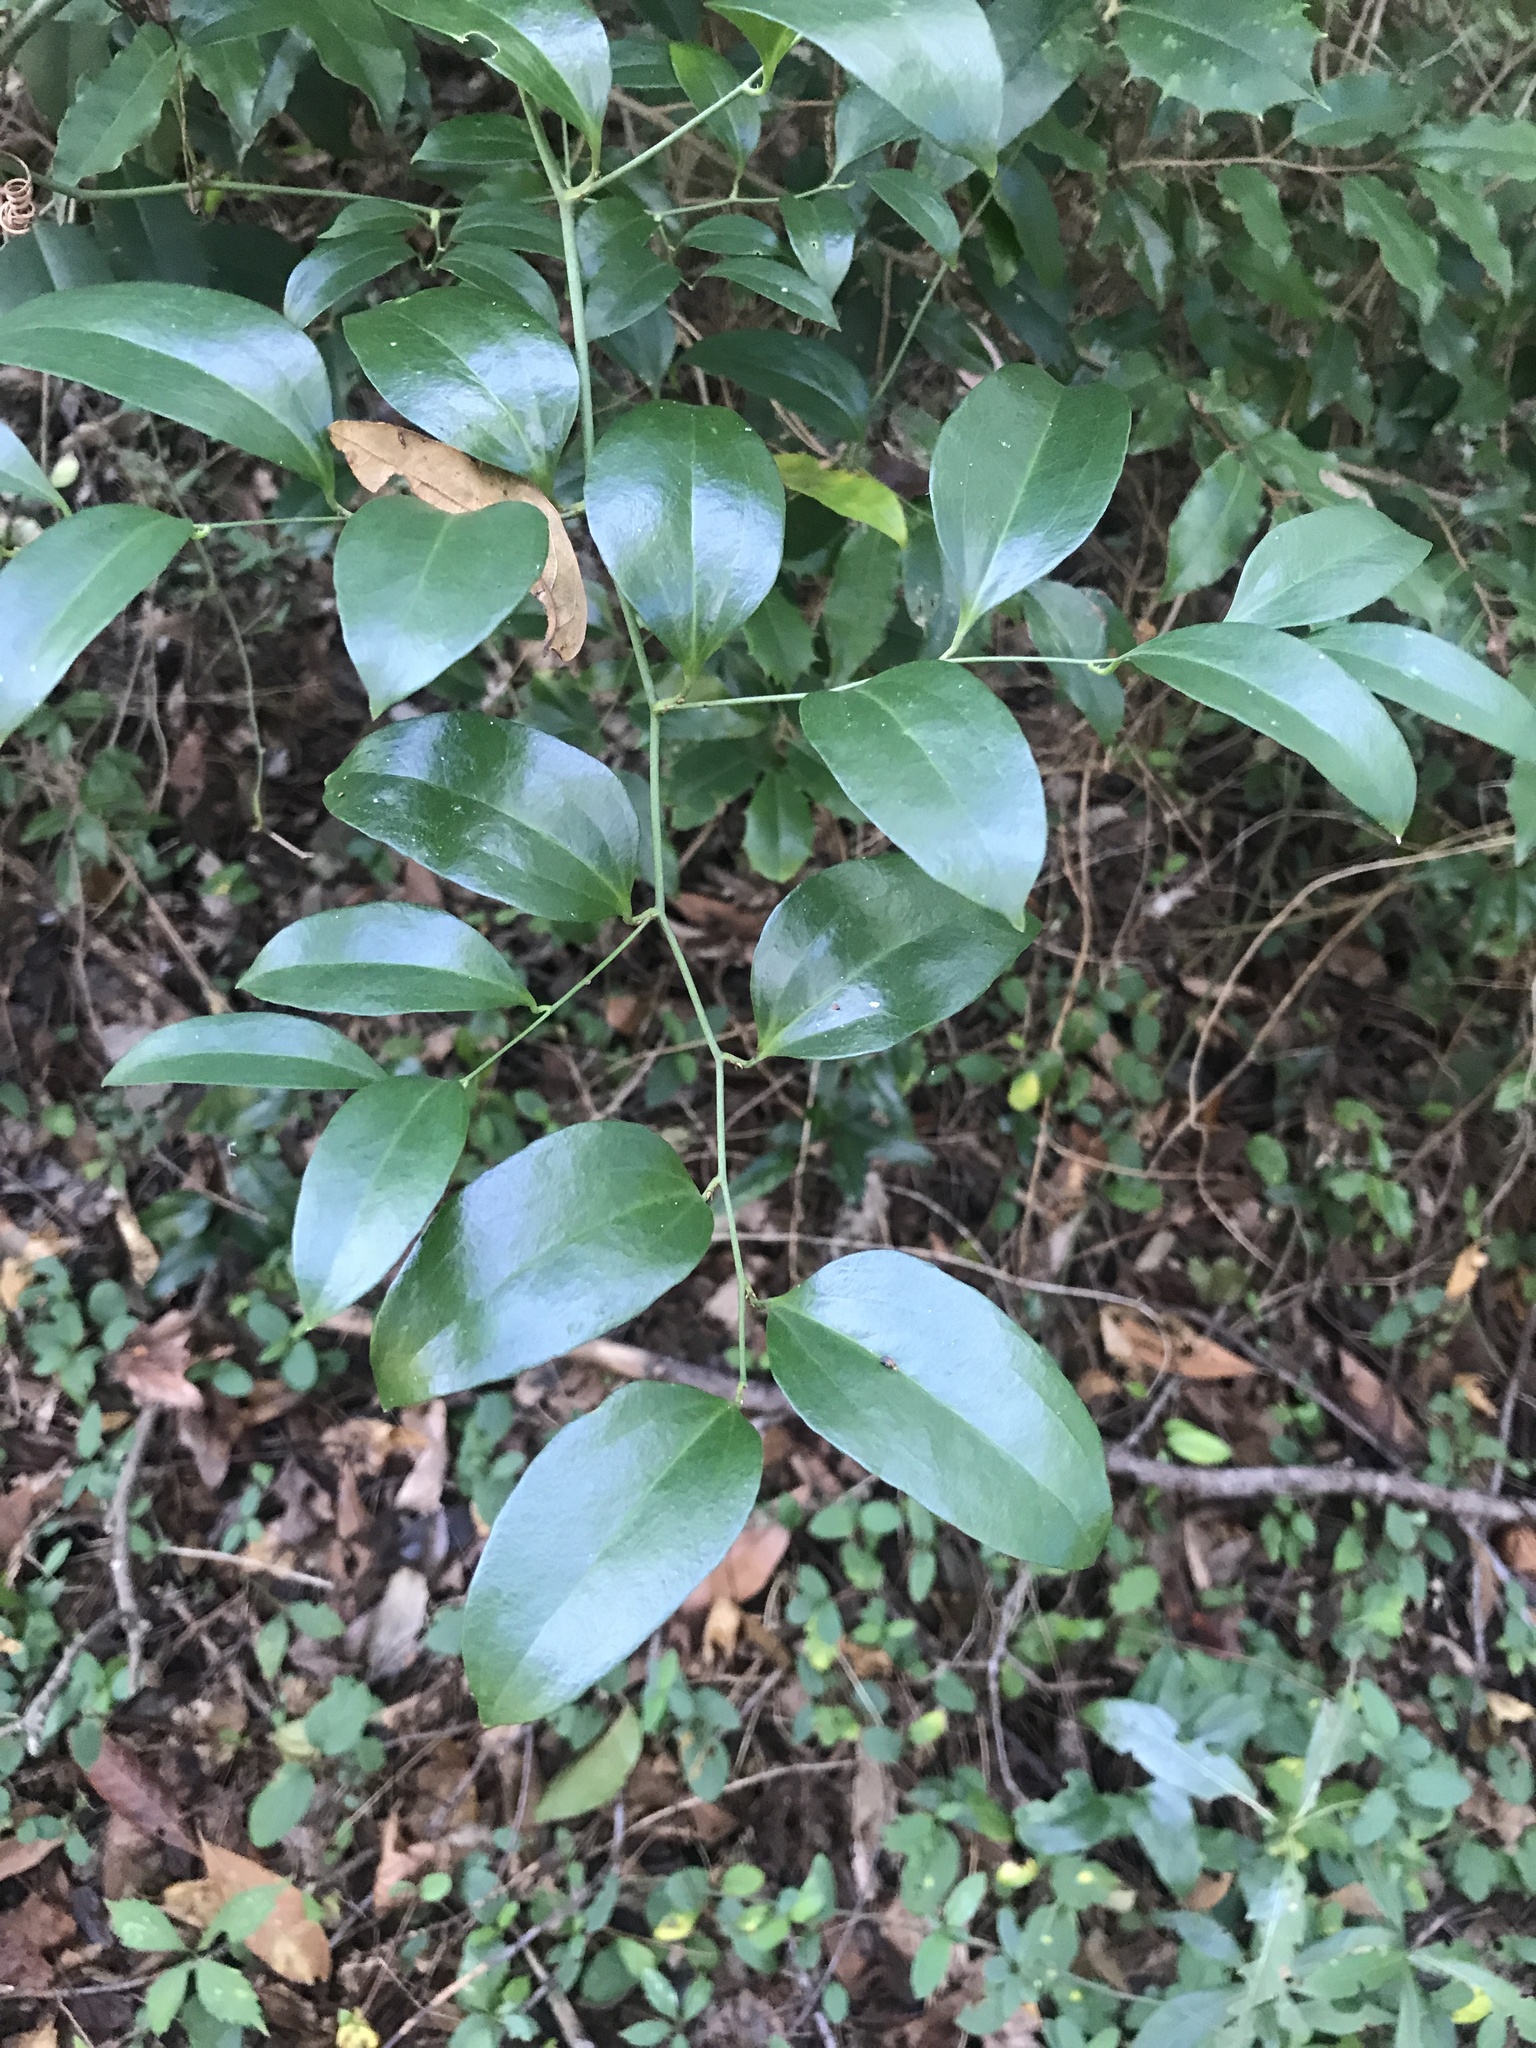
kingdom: Plantae
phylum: Tracheophyta
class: Liliopsida
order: Liliales
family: Smilacaceae
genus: Smilax
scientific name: Smilax maritima
